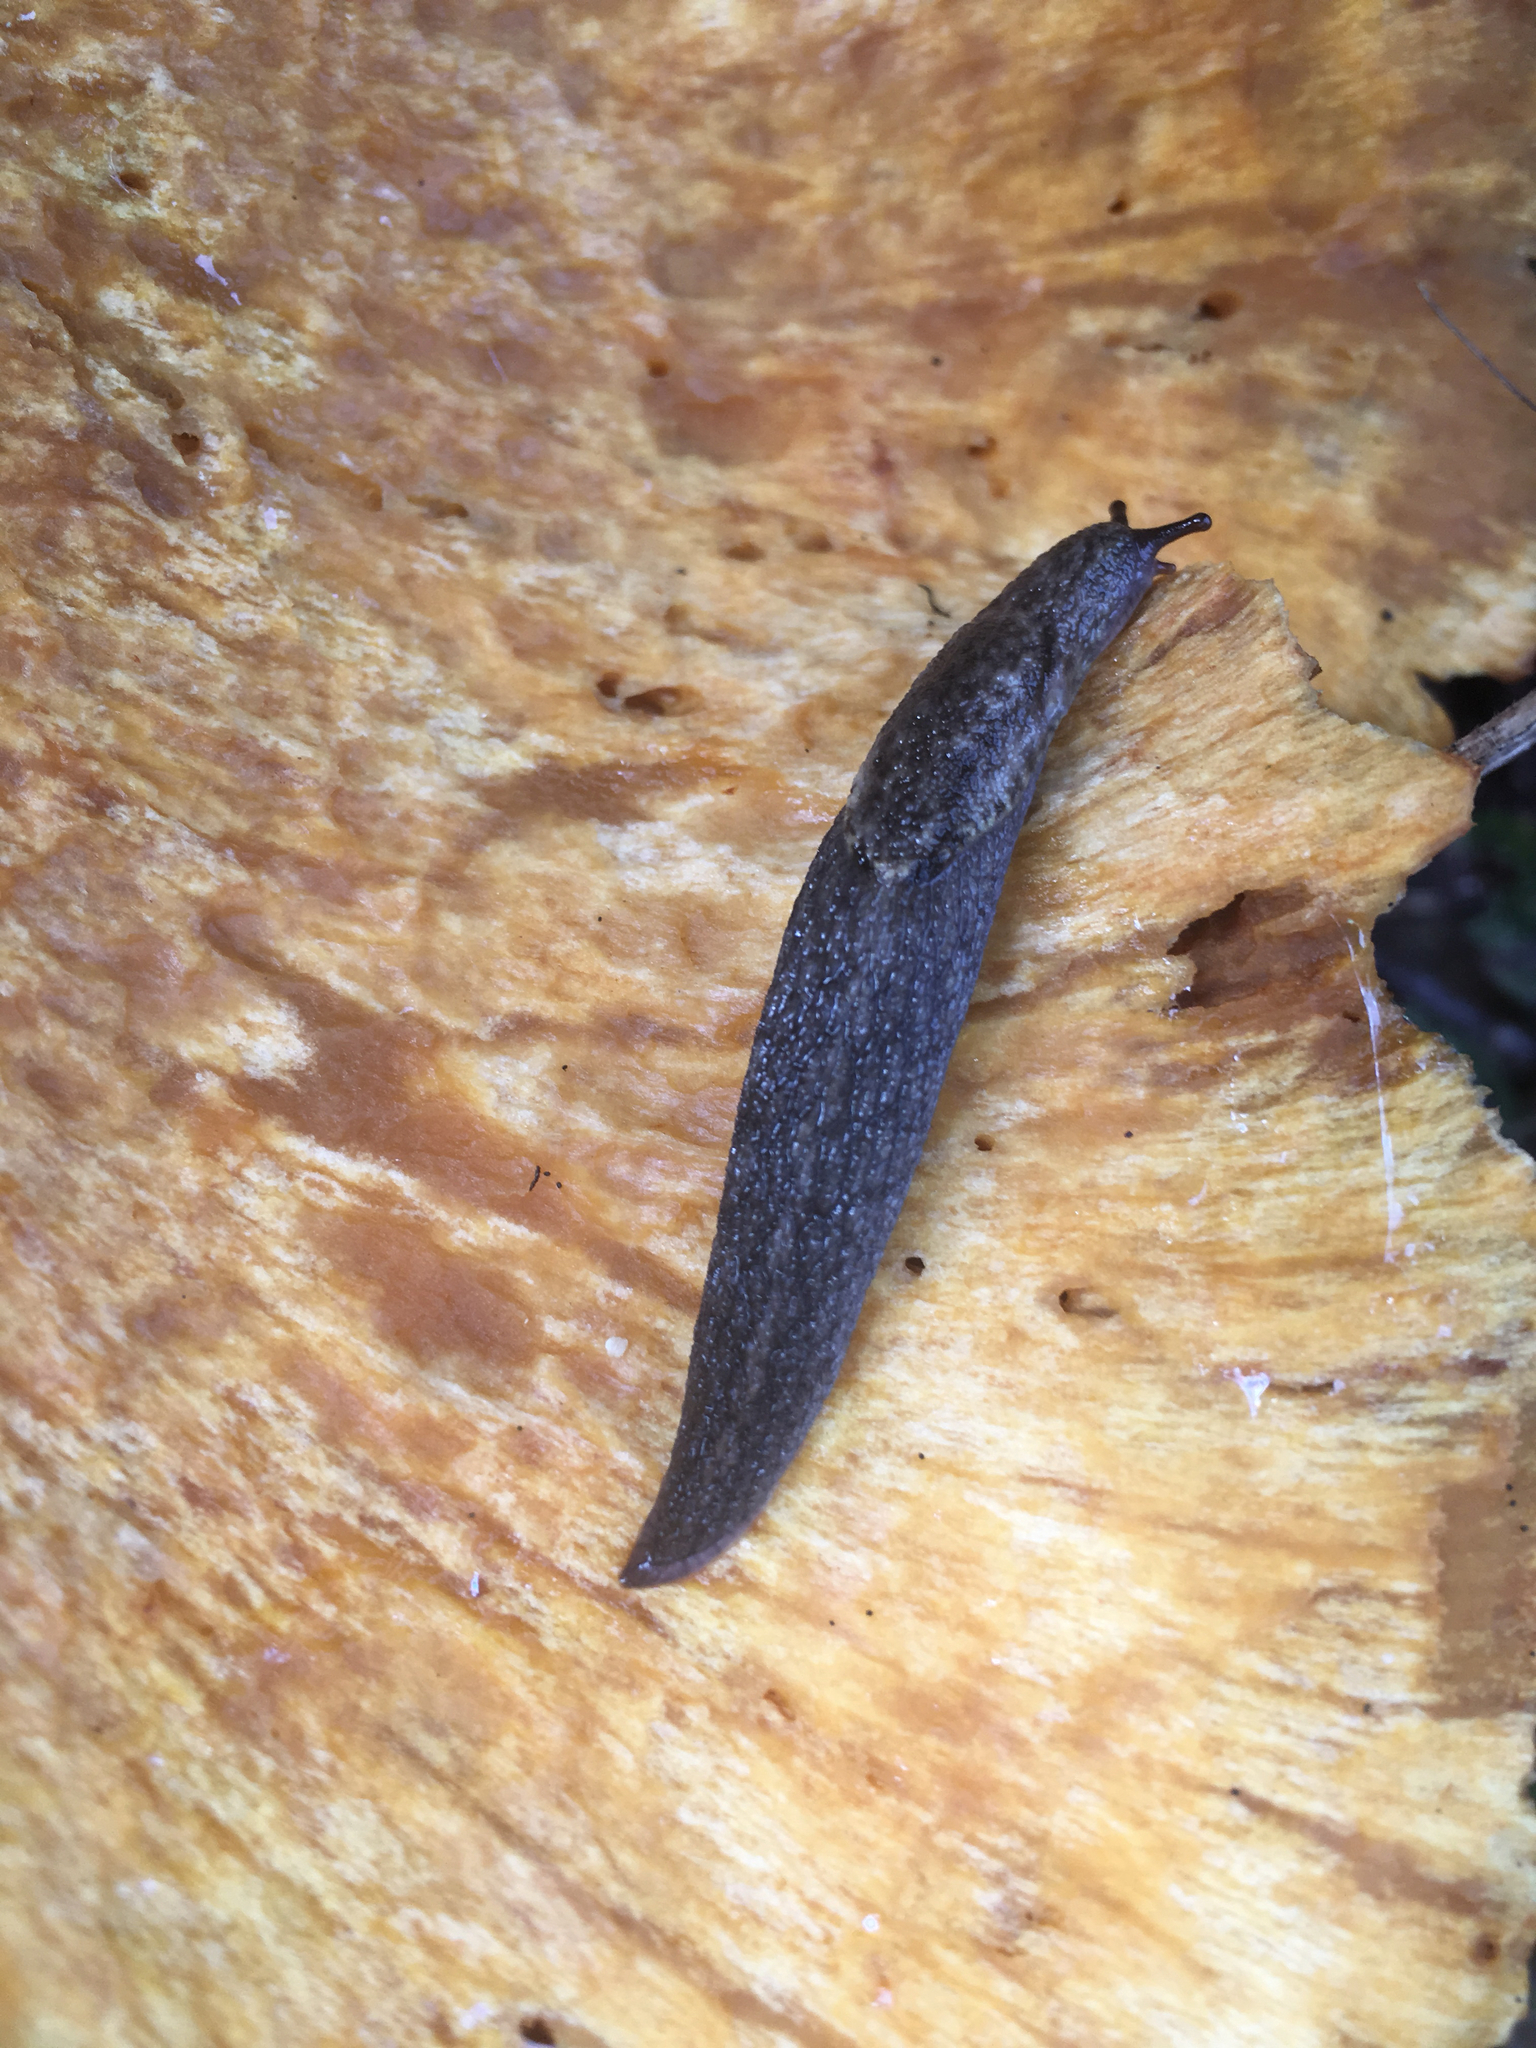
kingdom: Animalia
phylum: Mollusca
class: Gastropoda
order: Stylommatophora
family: Ariolimacidae
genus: Prophysaon
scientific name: Prophysaon andersonii
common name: Reticulate taildropper
